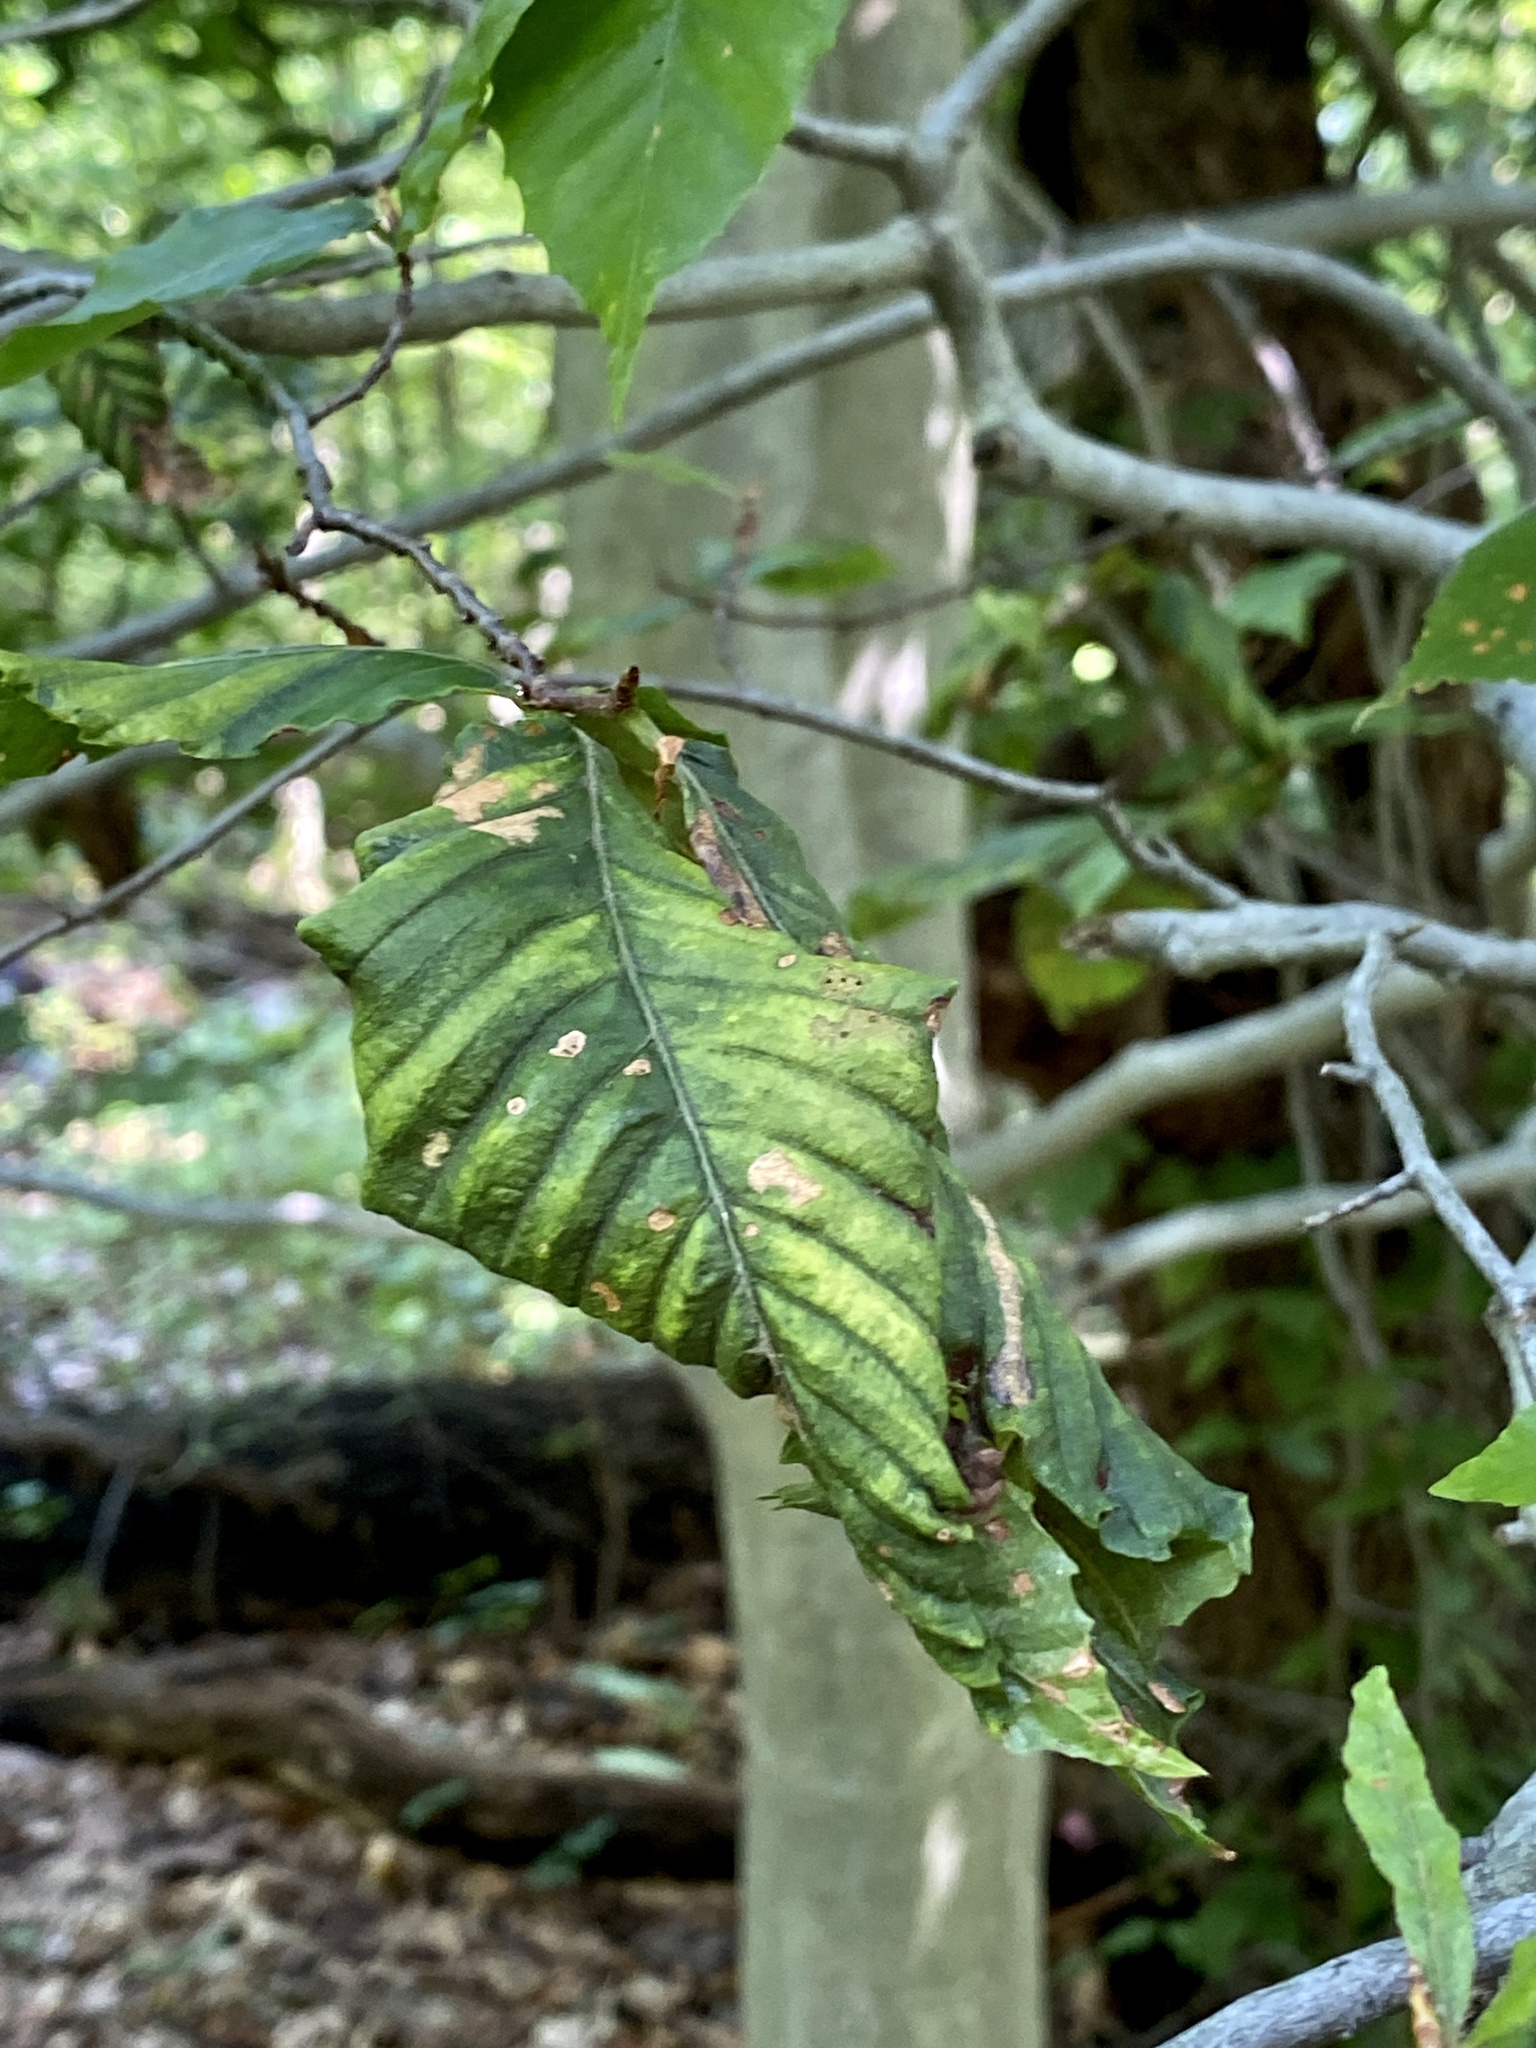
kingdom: Animalia
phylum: Nematoda
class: Chromadorea
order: Rhabditida
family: Anguinidae
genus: Litylenchus
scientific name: Litylenchus crenatae
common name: Beech leaf disease
